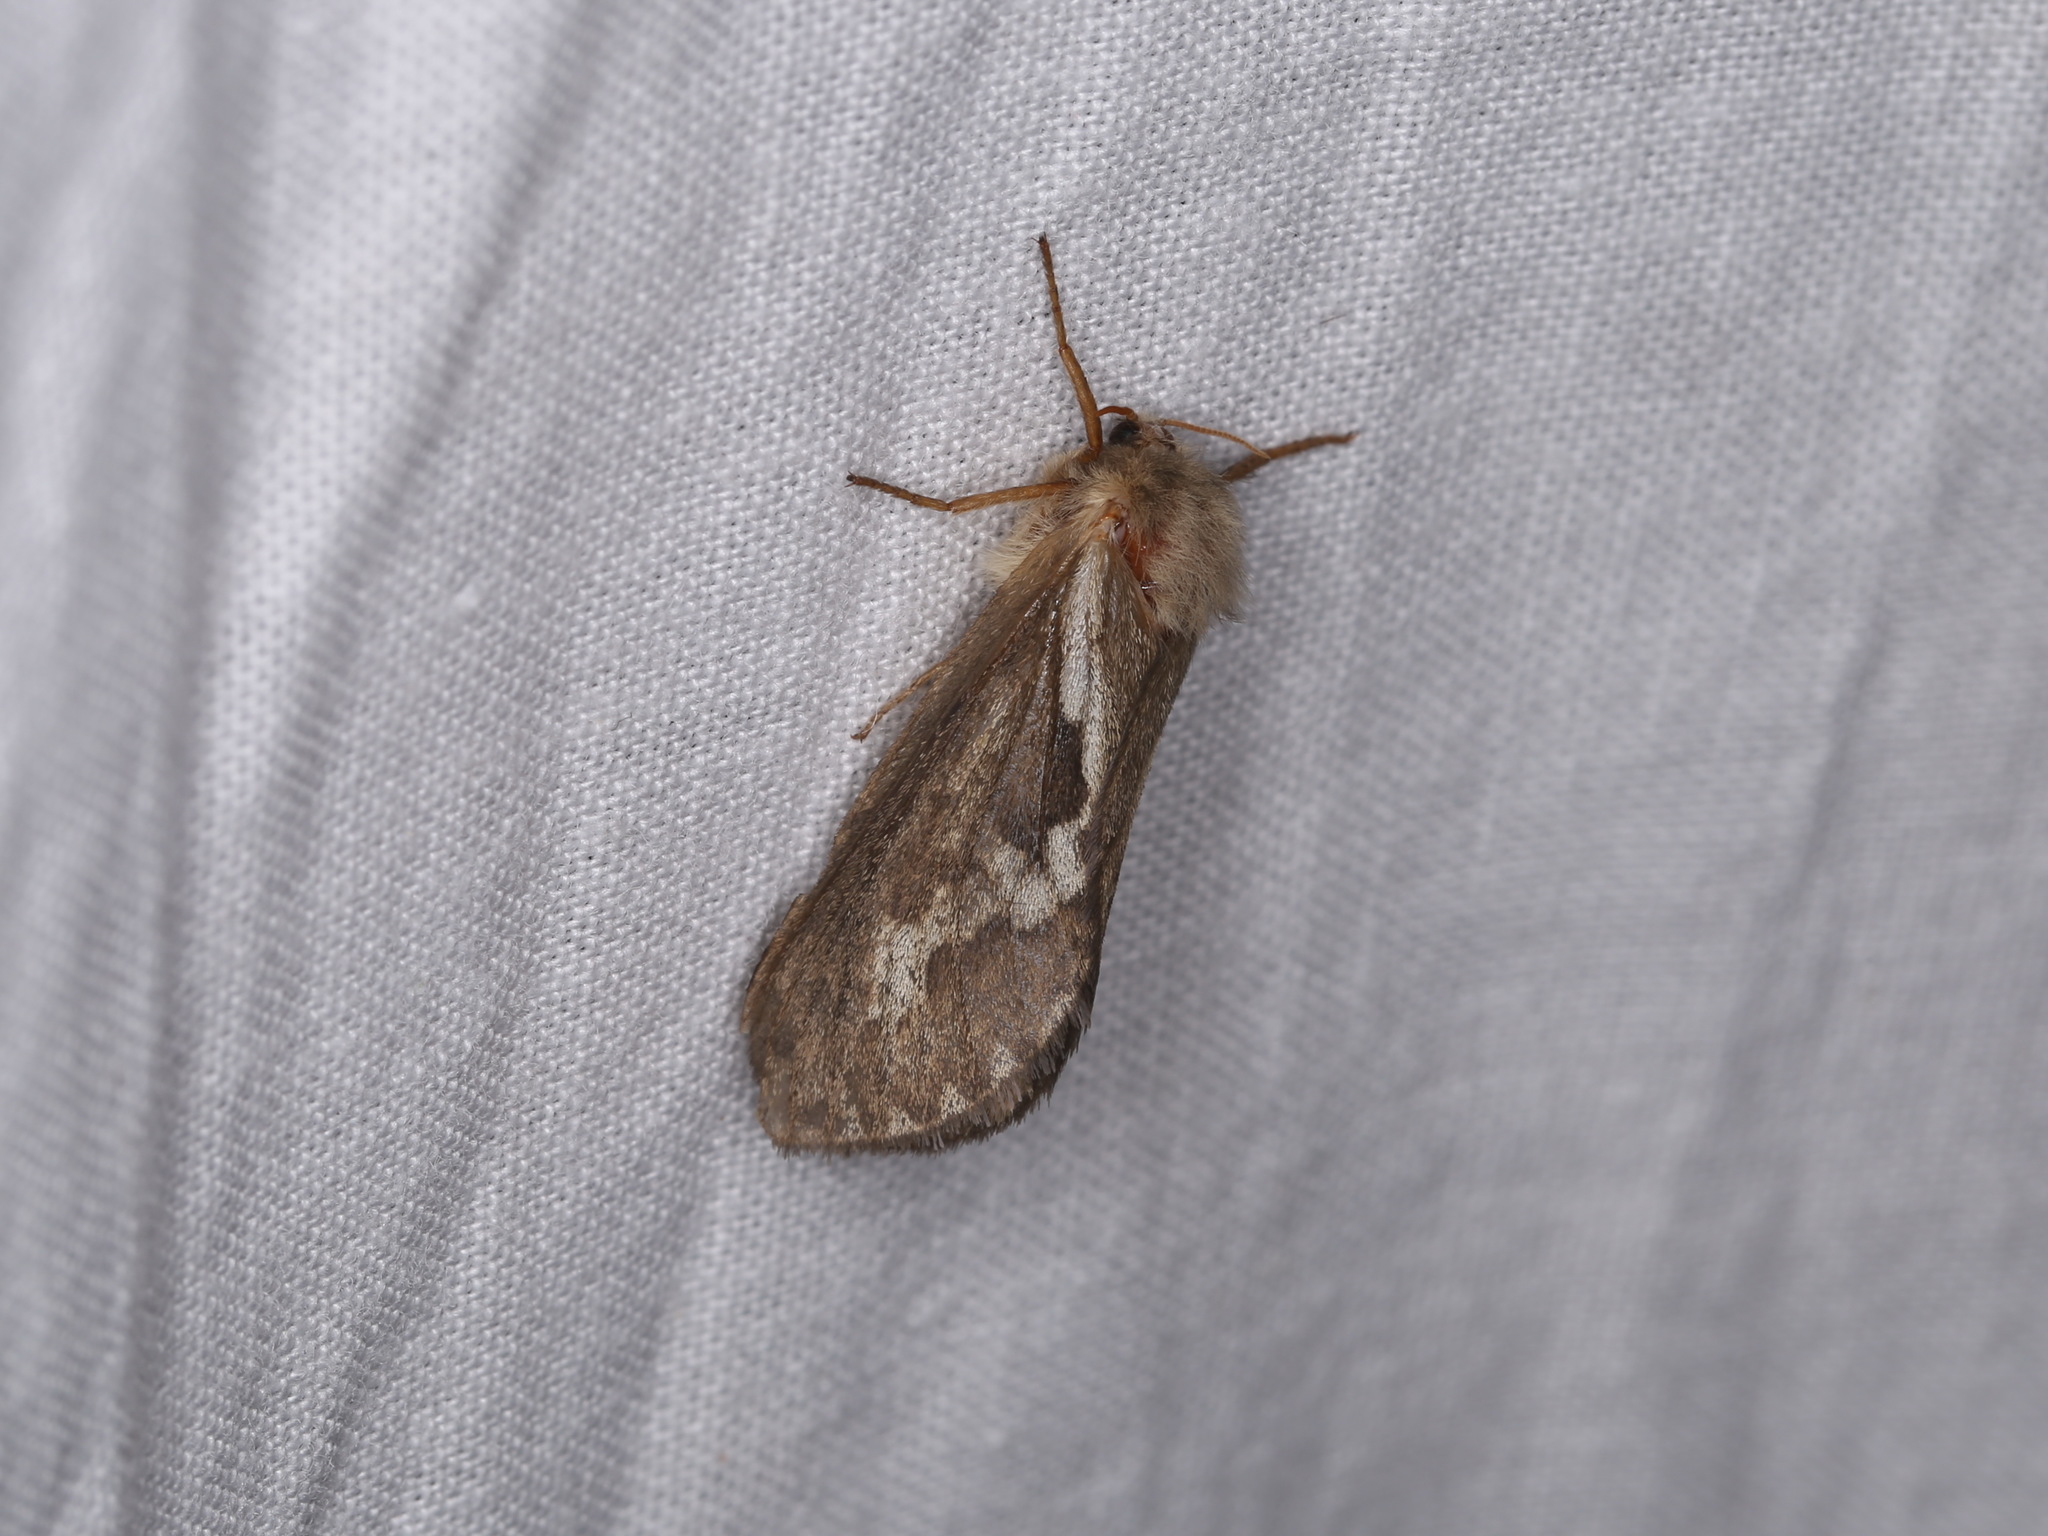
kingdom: Animalia
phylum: Arthropoda
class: Insecta
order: Lepidoptera
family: Hepialidae
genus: Korscheltellus
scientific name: Korscheltellus lupulina
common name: Common swift
